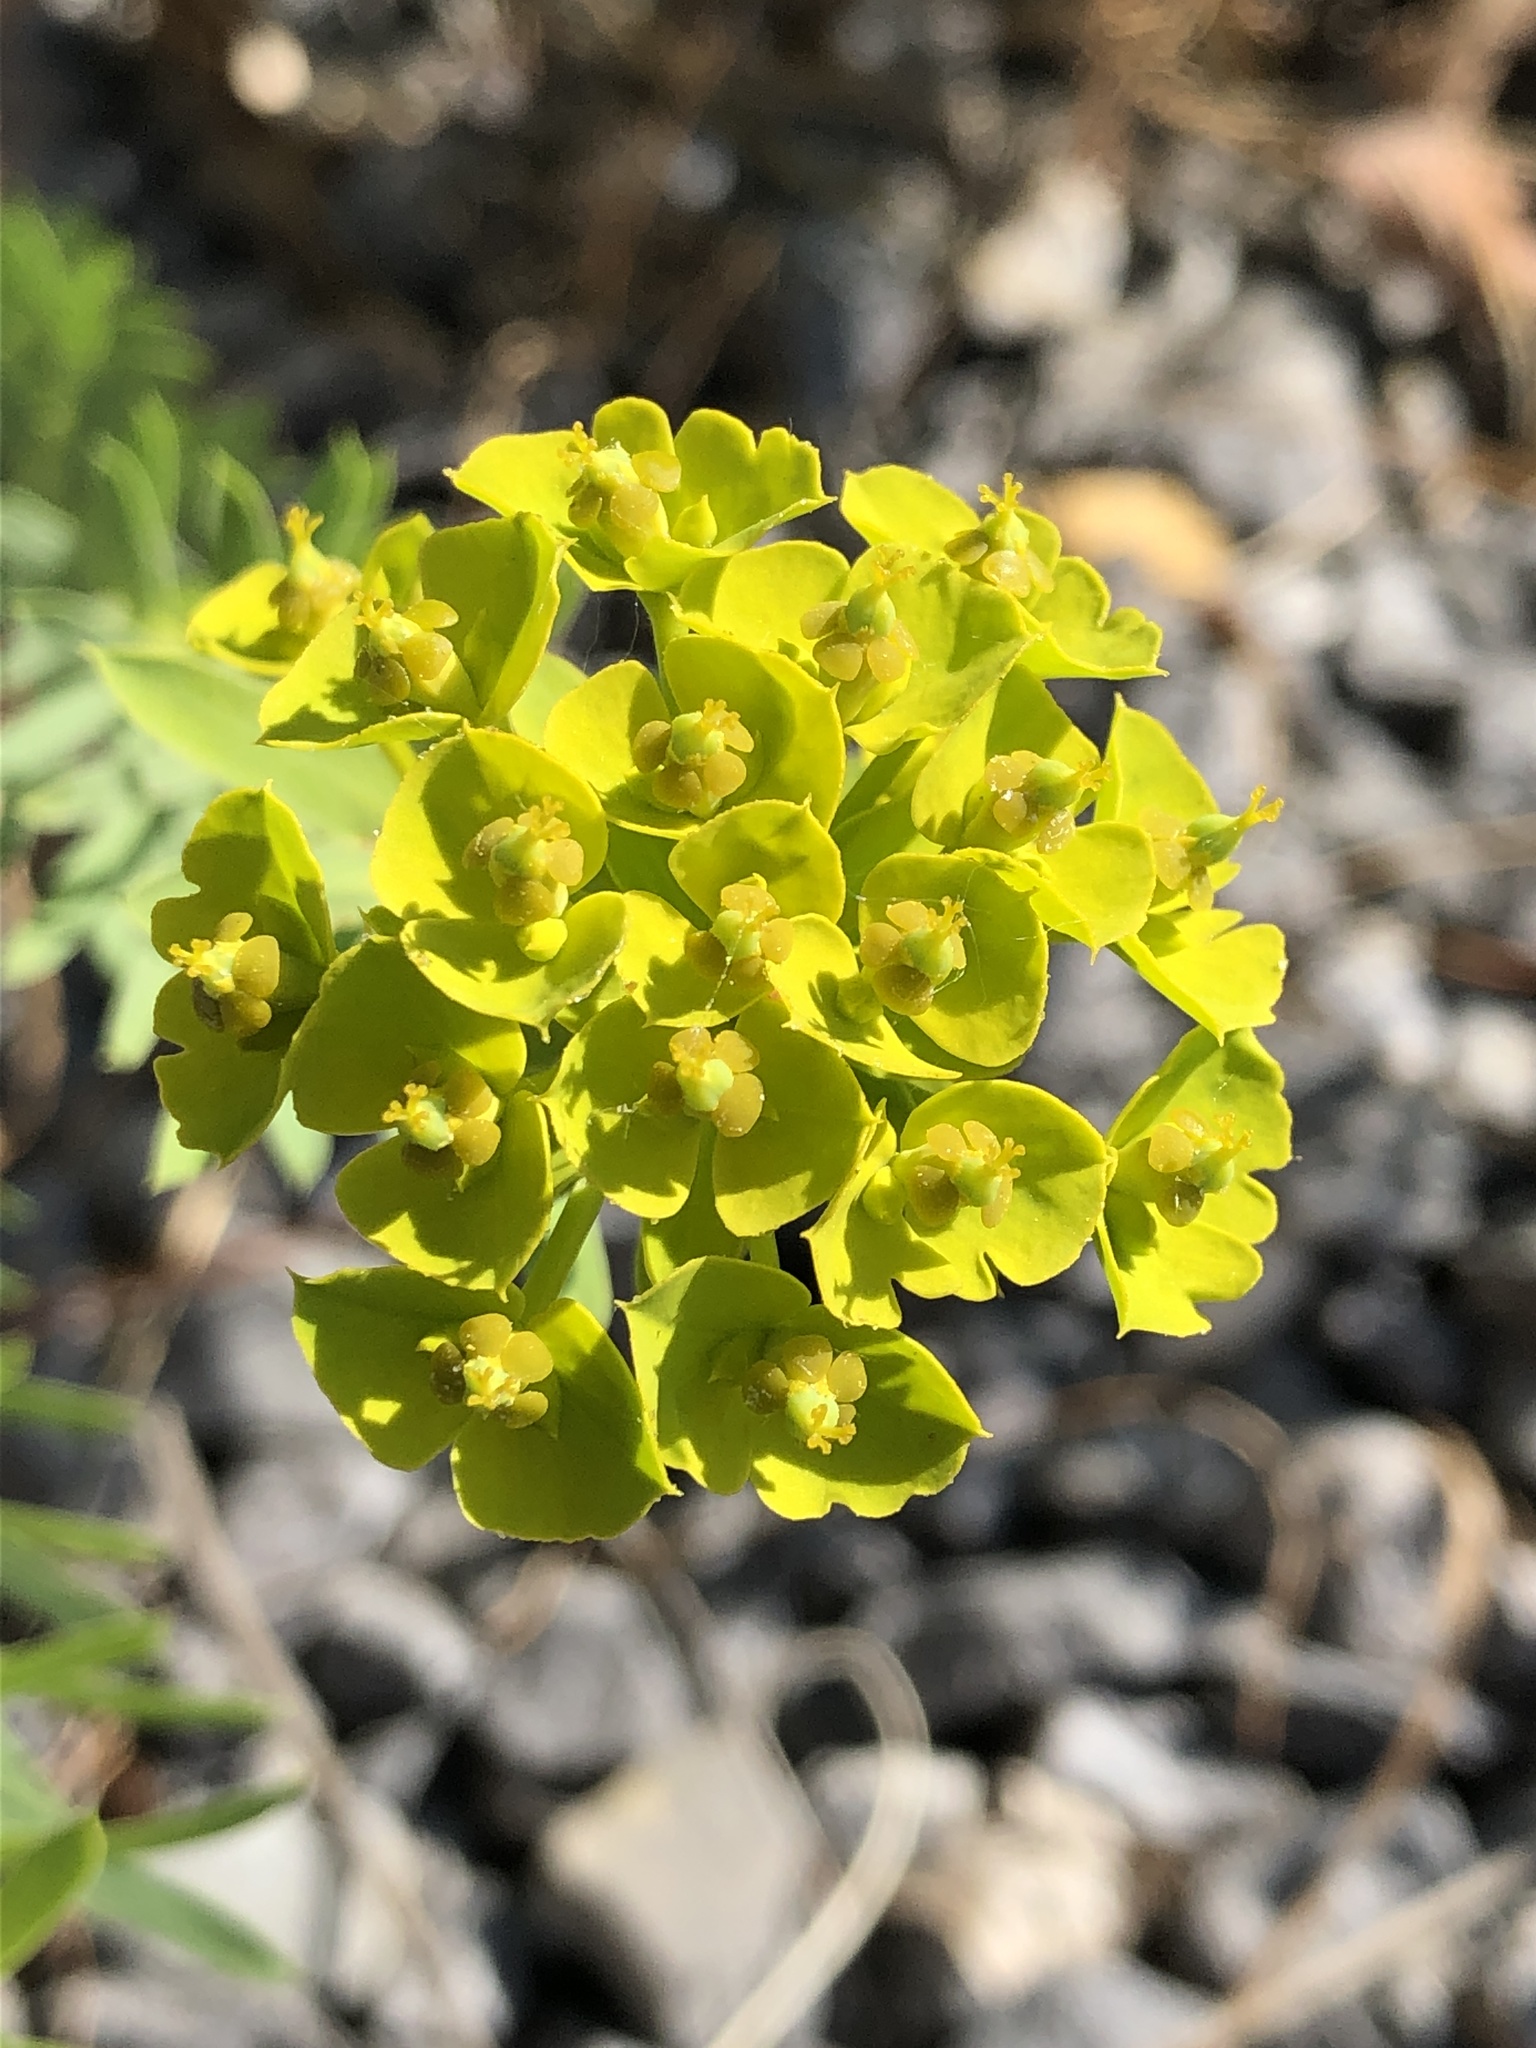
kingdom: Plantae
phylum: Tracheophyta
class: Magnoliopsida
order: Malpighiales
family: Euphorbiaceae
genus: Euphorbia
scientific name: Euphorbia cyparissias
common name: Cypress spurge
